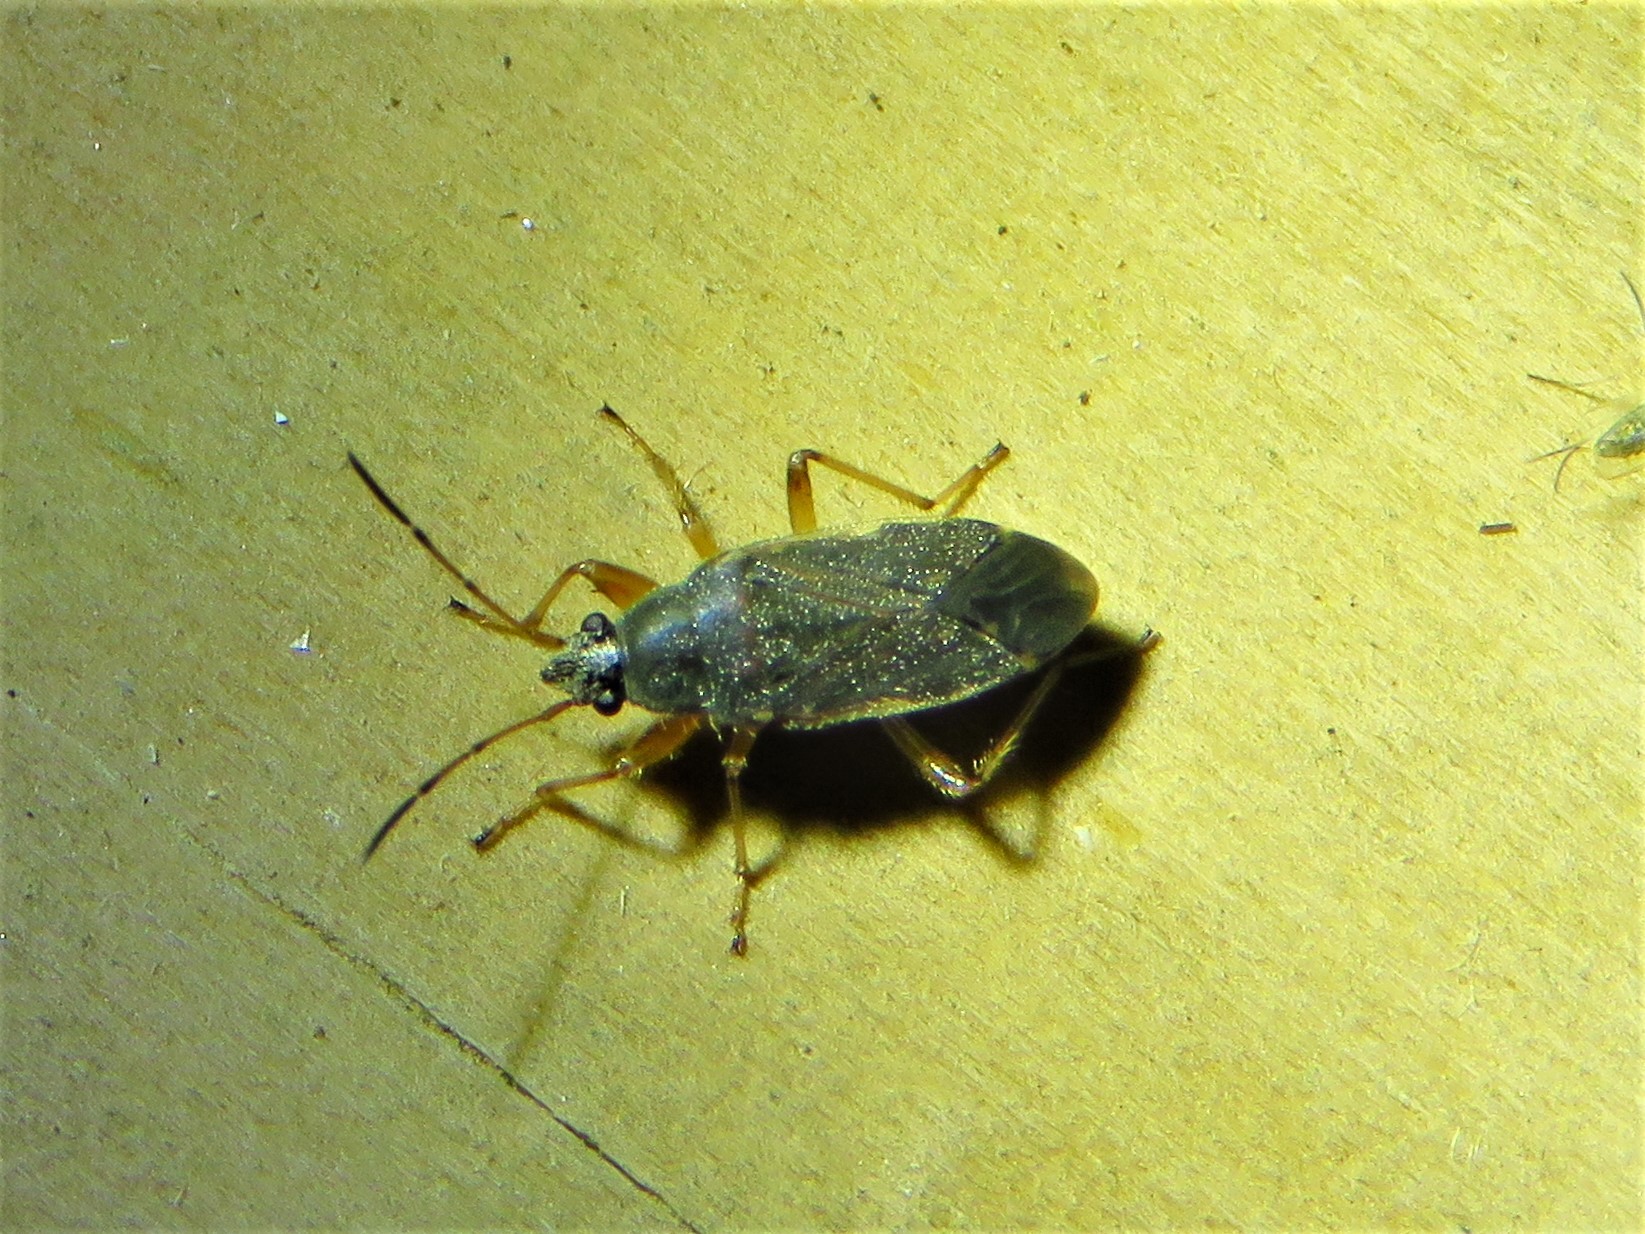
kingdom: Animalia
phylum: Arthropoda
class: Insecta
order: Hemiptera
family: Rhyparochromidae
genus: Zeridoneus
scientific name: Zeridoneus knulli
